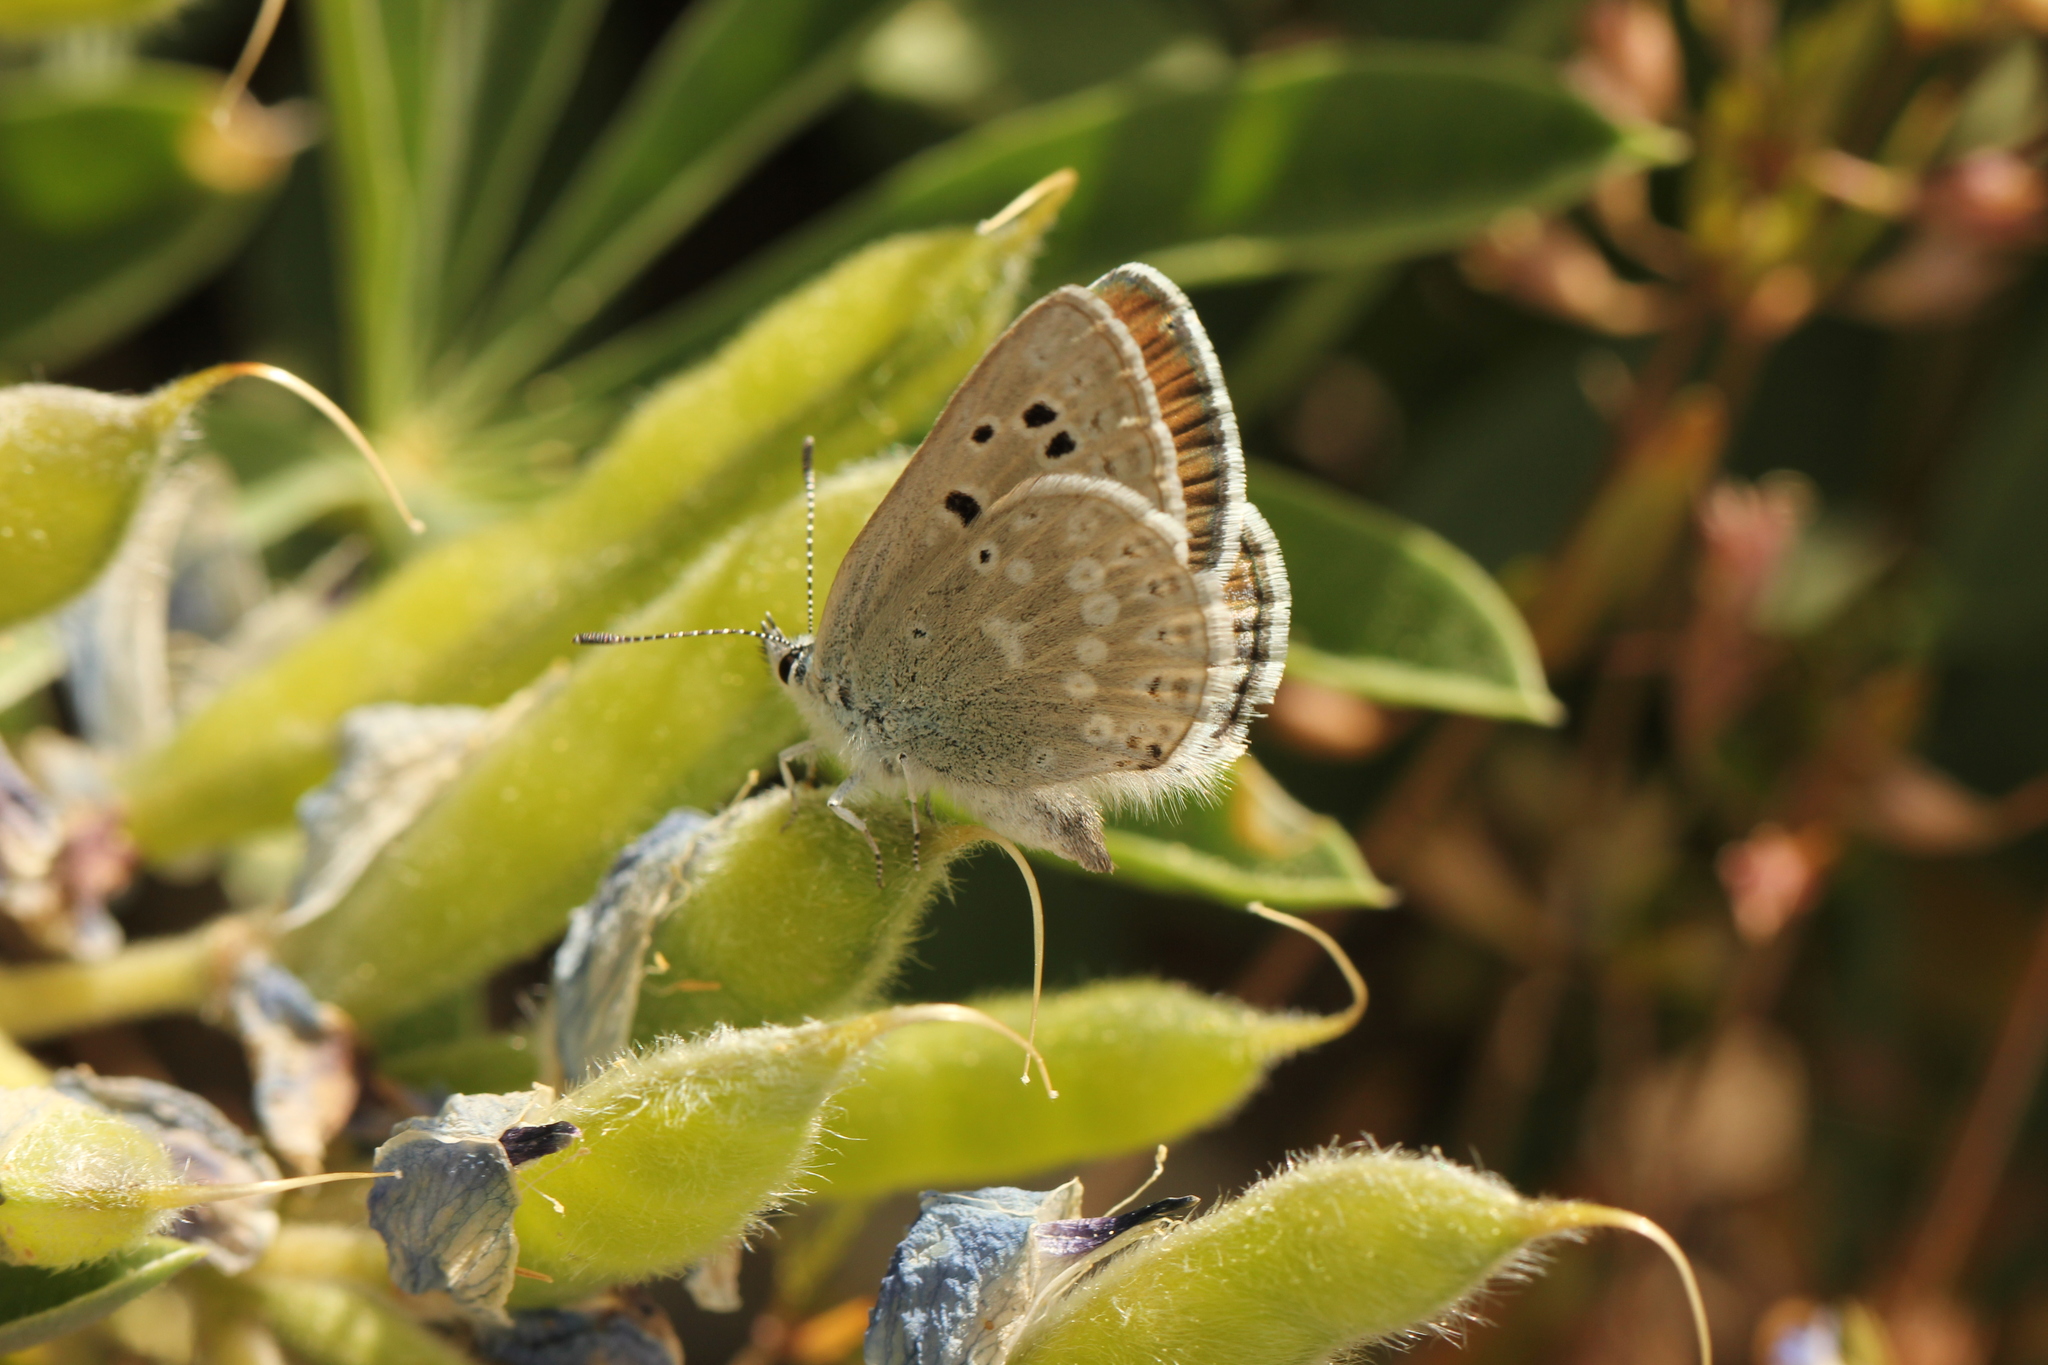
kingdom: Animalia
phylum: Arthropoda
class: Insecta
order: Lepidoptera
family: Lycaenidae
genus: Icaricia
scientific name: Icaricia icarioides
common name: Boisduval's blue
